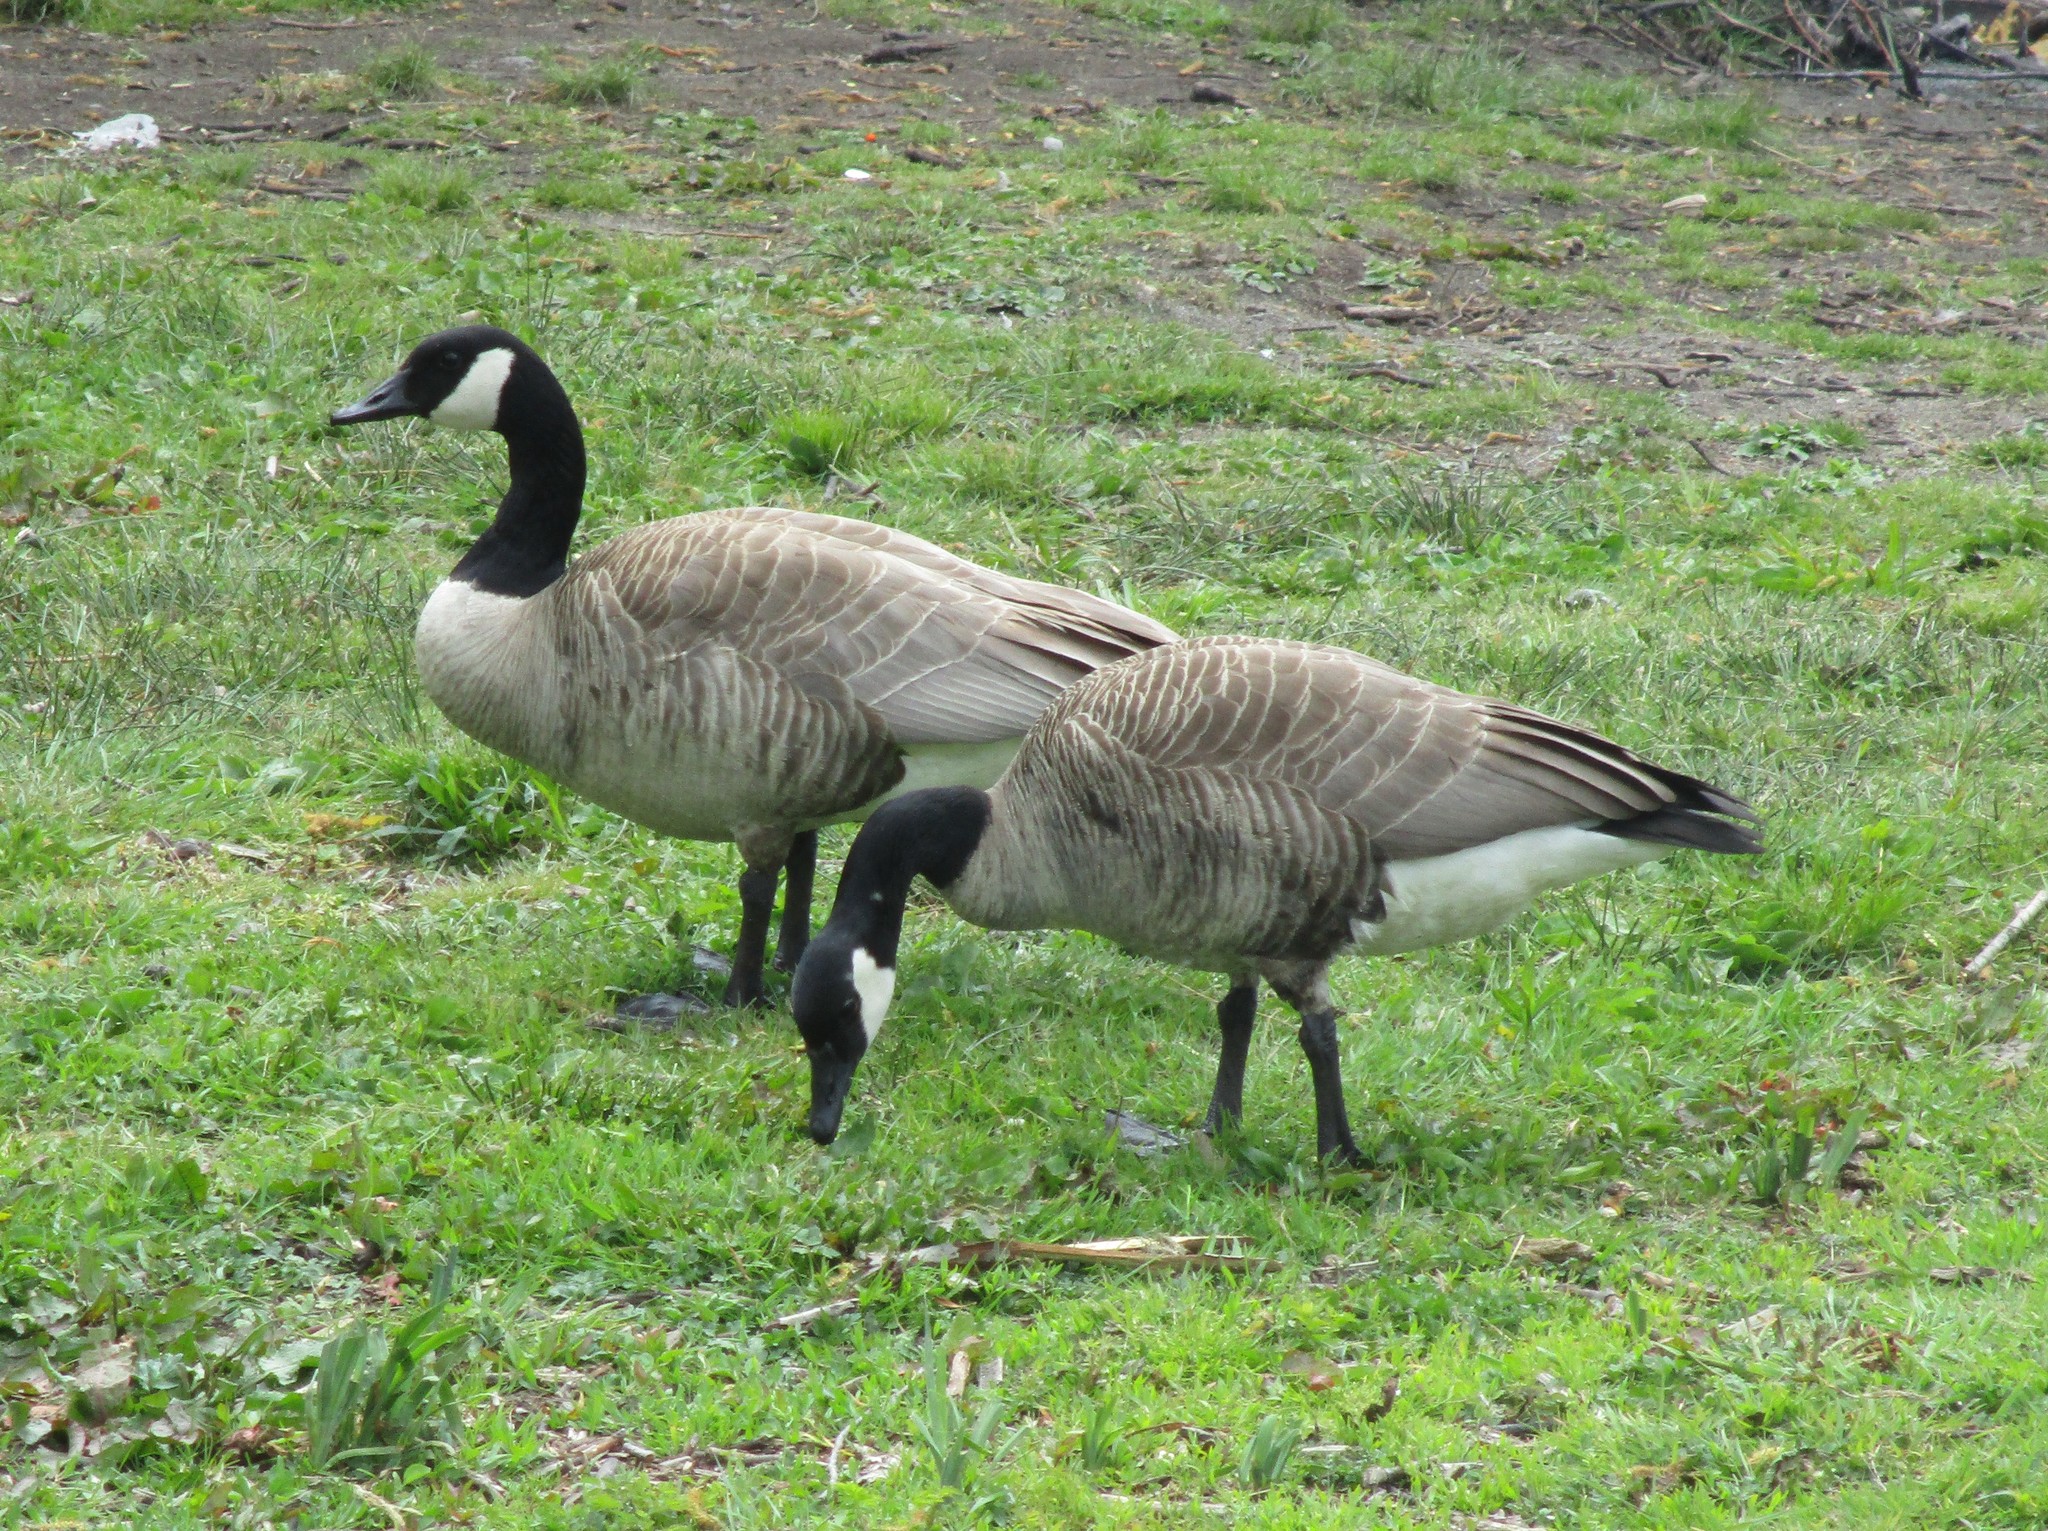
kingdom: Animalia
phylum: Chordata
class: Aves
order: Anseriformes
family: Anatidae
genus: Branta
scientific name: Branta canadensis
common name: Canada goose
